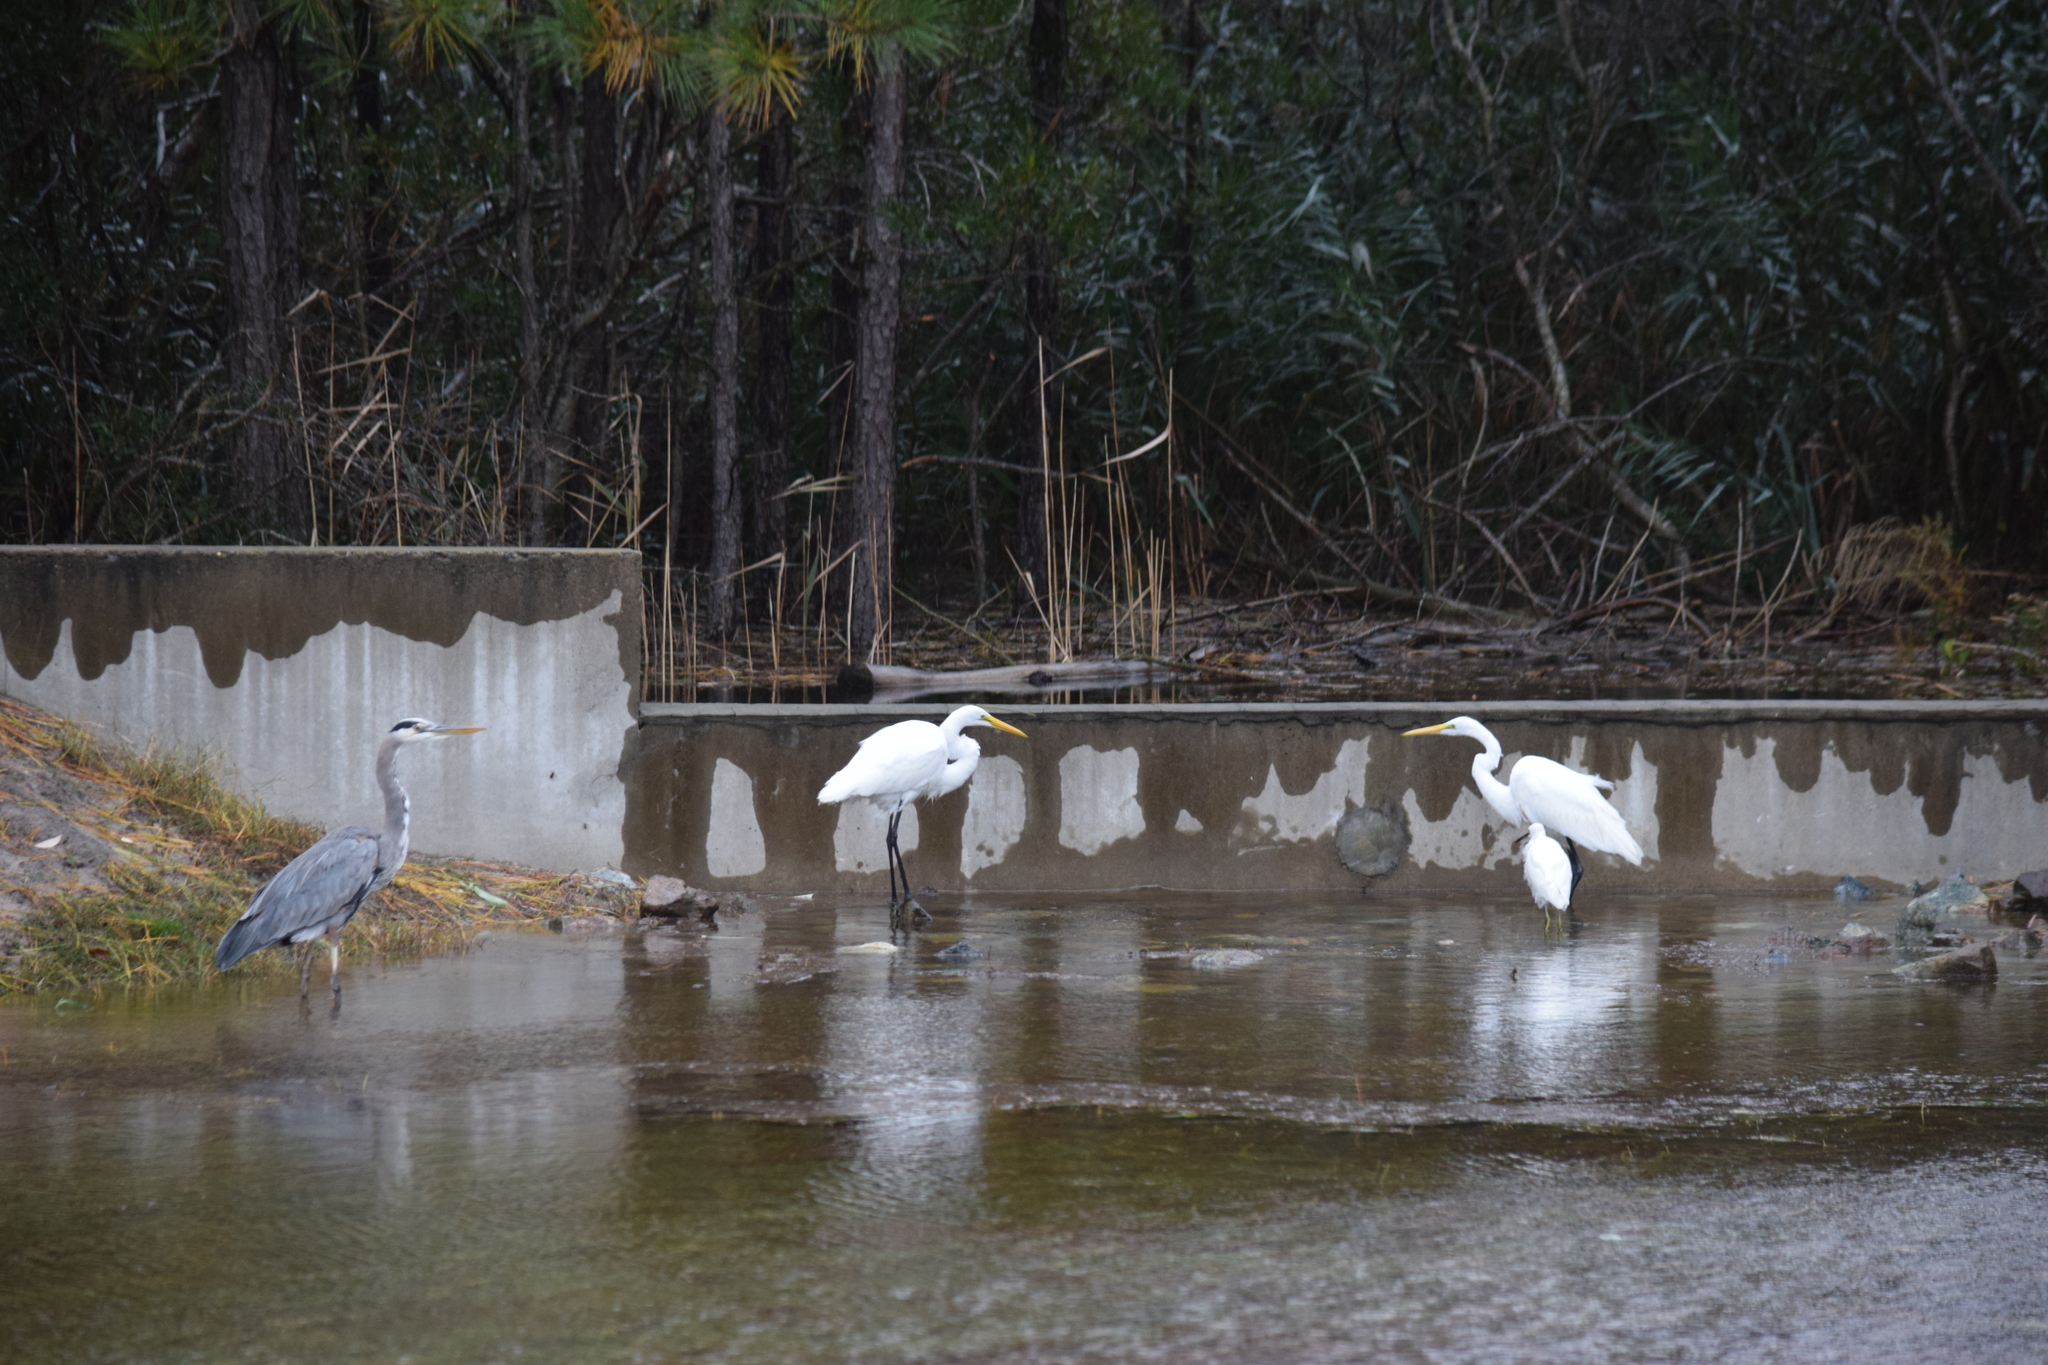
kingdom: Animalia
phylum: Chordata
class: Aves
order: Pelecaniformes
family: Ardeidae
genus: Egretta
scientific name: Egretta thula
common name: Snowy egret
